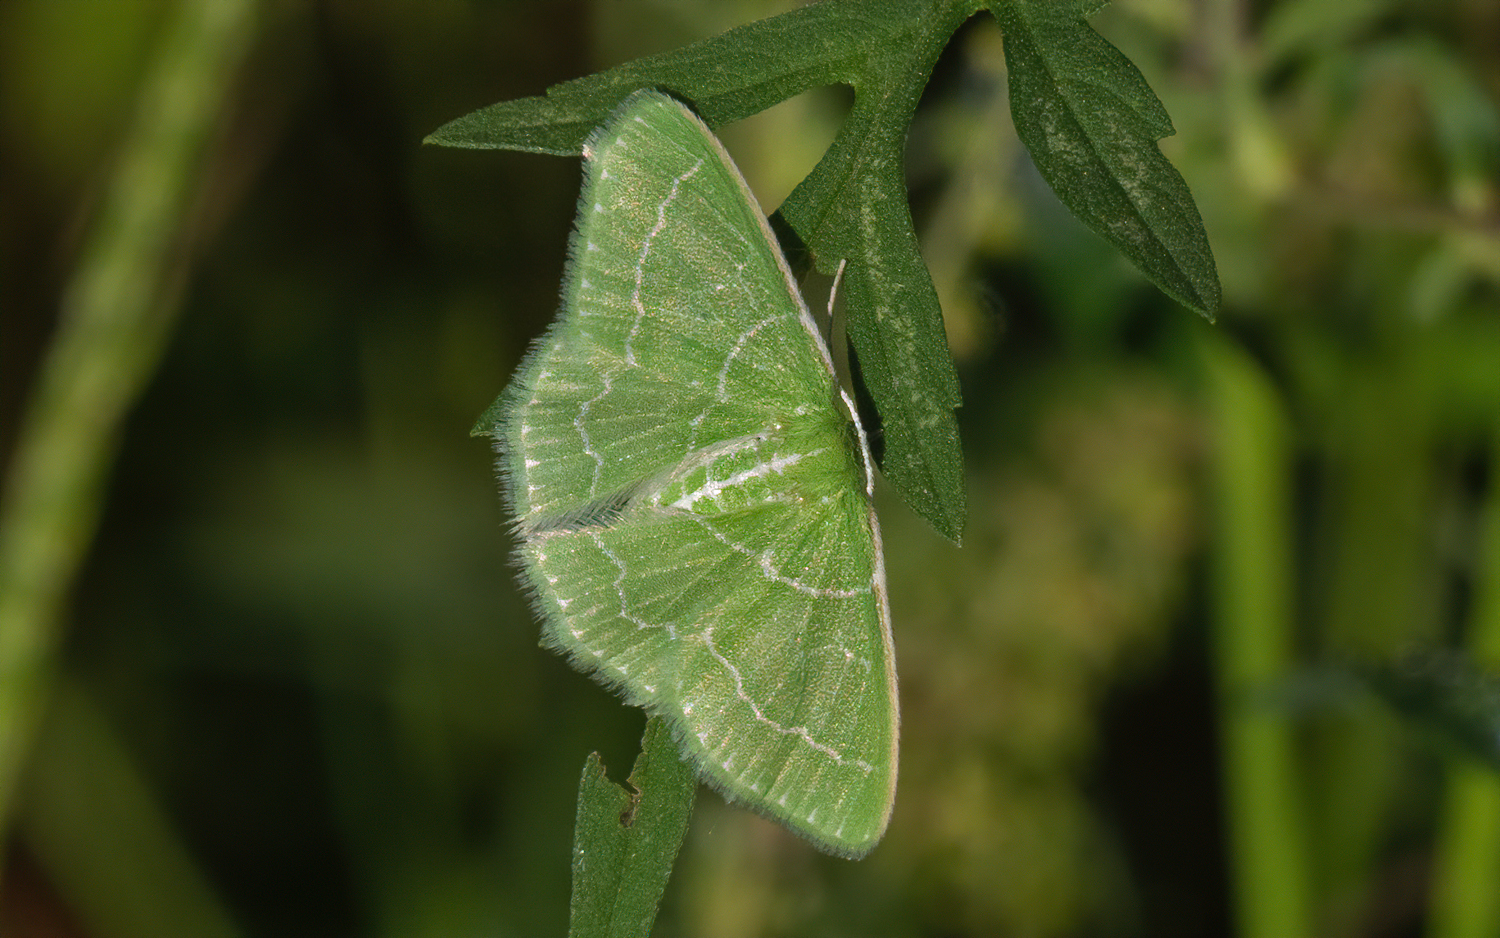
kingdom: Animalia
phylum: Arthropoda
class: Insecta
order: Lepidoptera
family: Geometridae
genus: Synchlora
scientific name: Synchlora aerata
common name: Wavy-lined emerald
